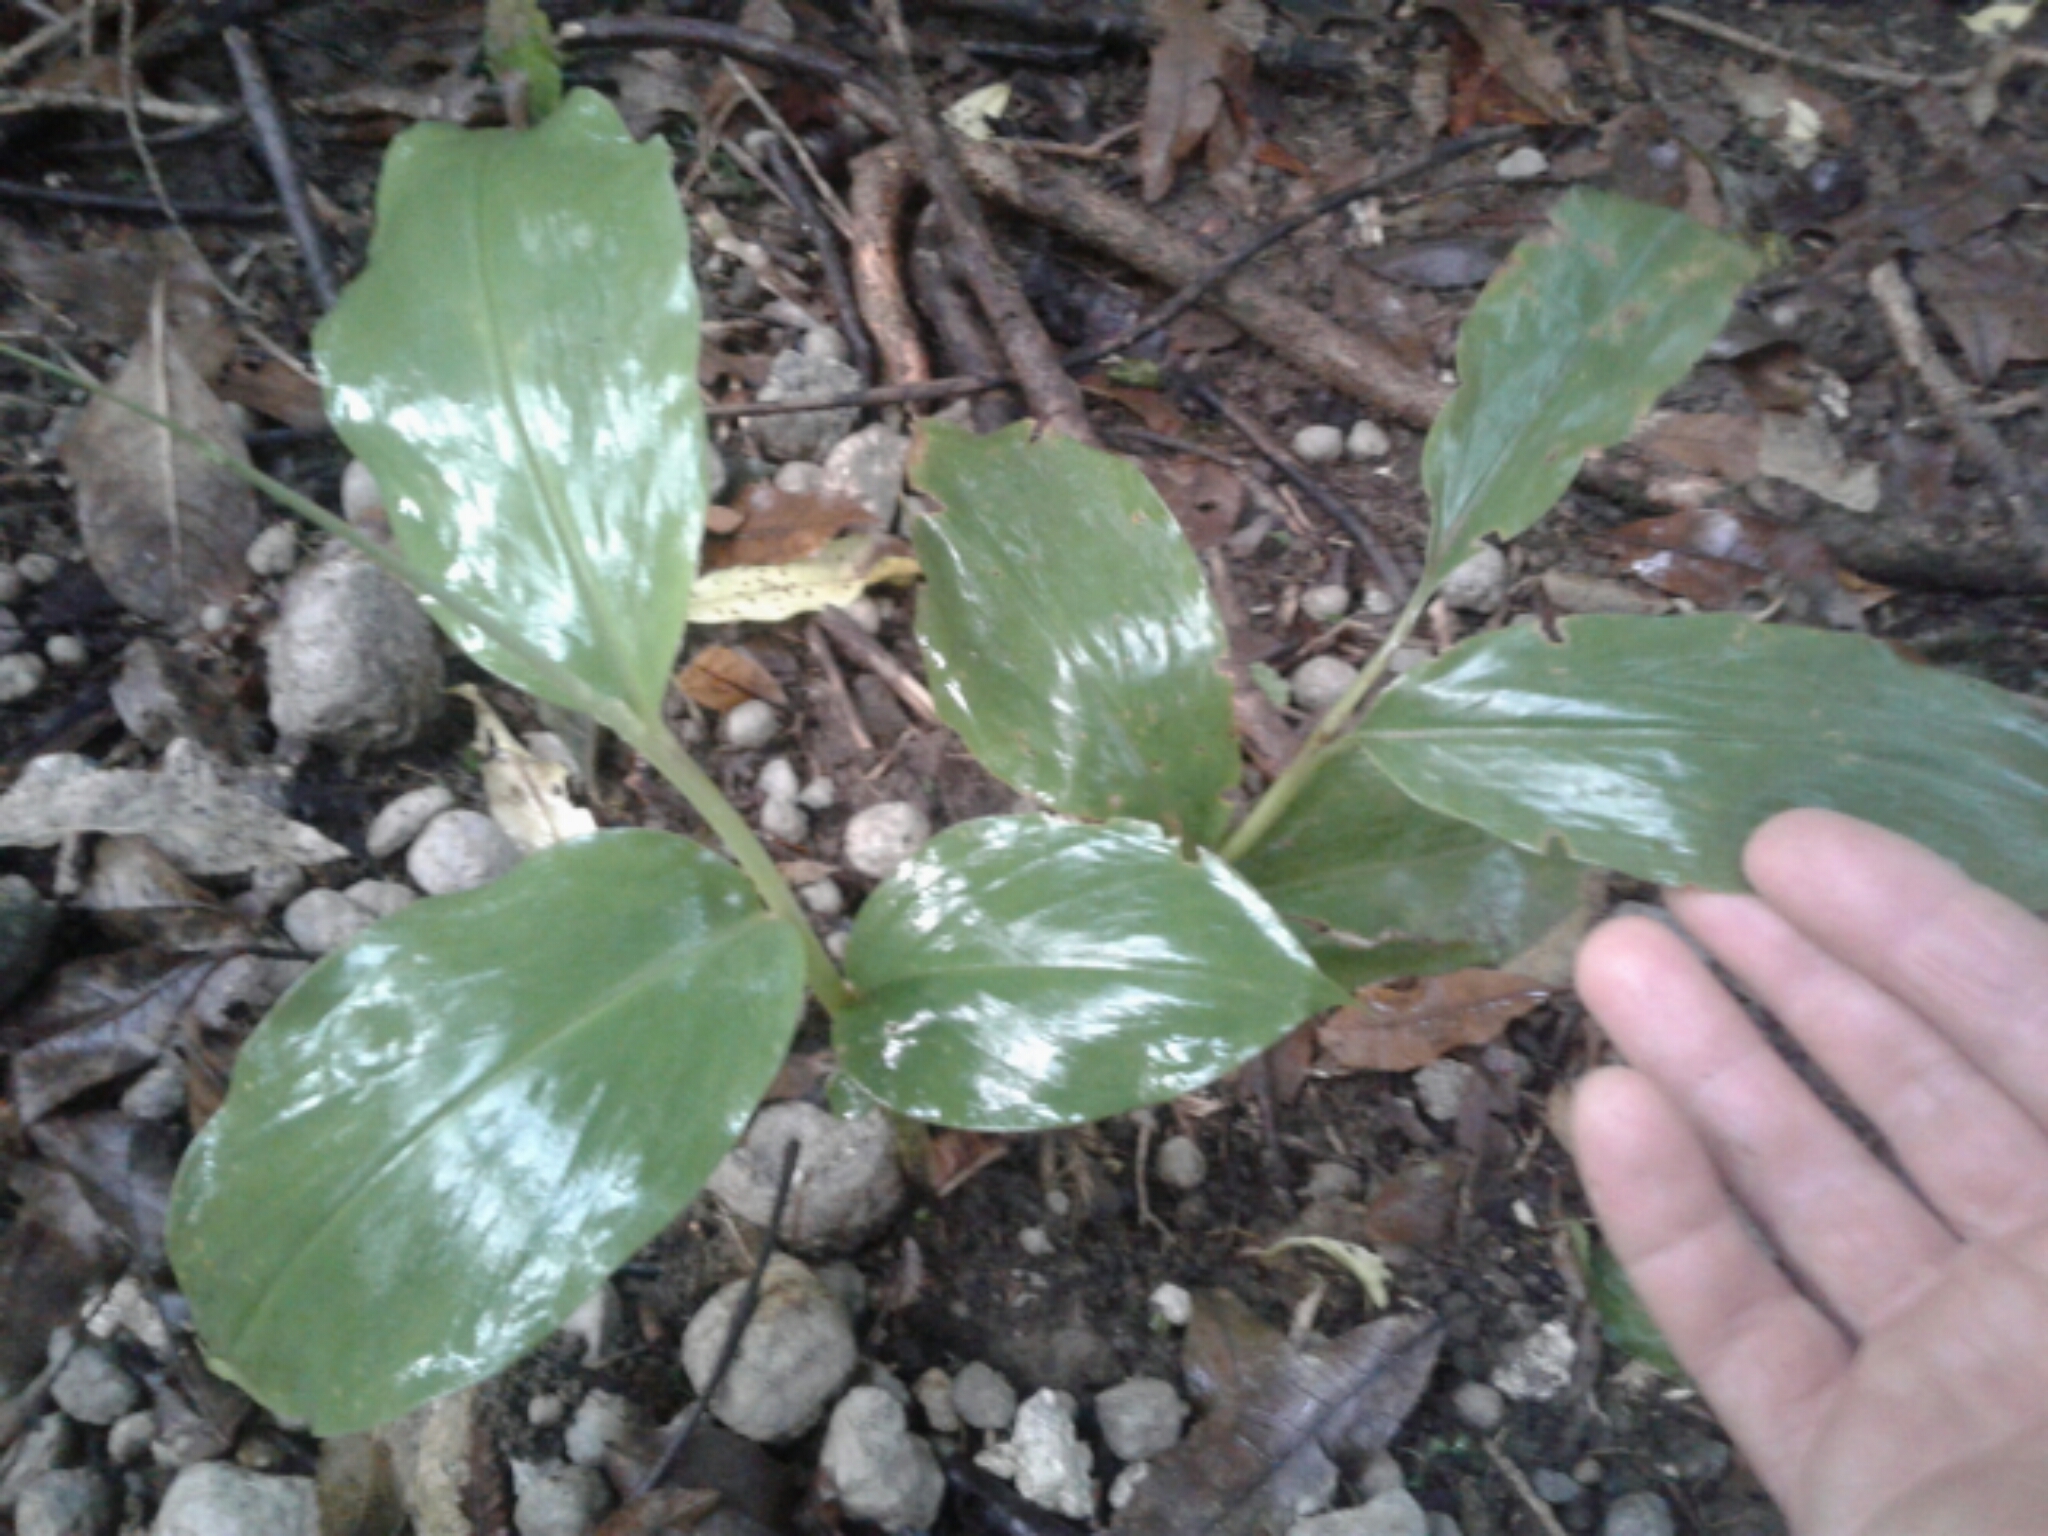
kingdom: Plantae
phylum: Tracheophyta
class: Liliopsida
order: Zingiberales
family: Zingiberaceae
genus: Hedychium
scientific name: Hedychium gardnerianum
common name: Himalayan ginger
